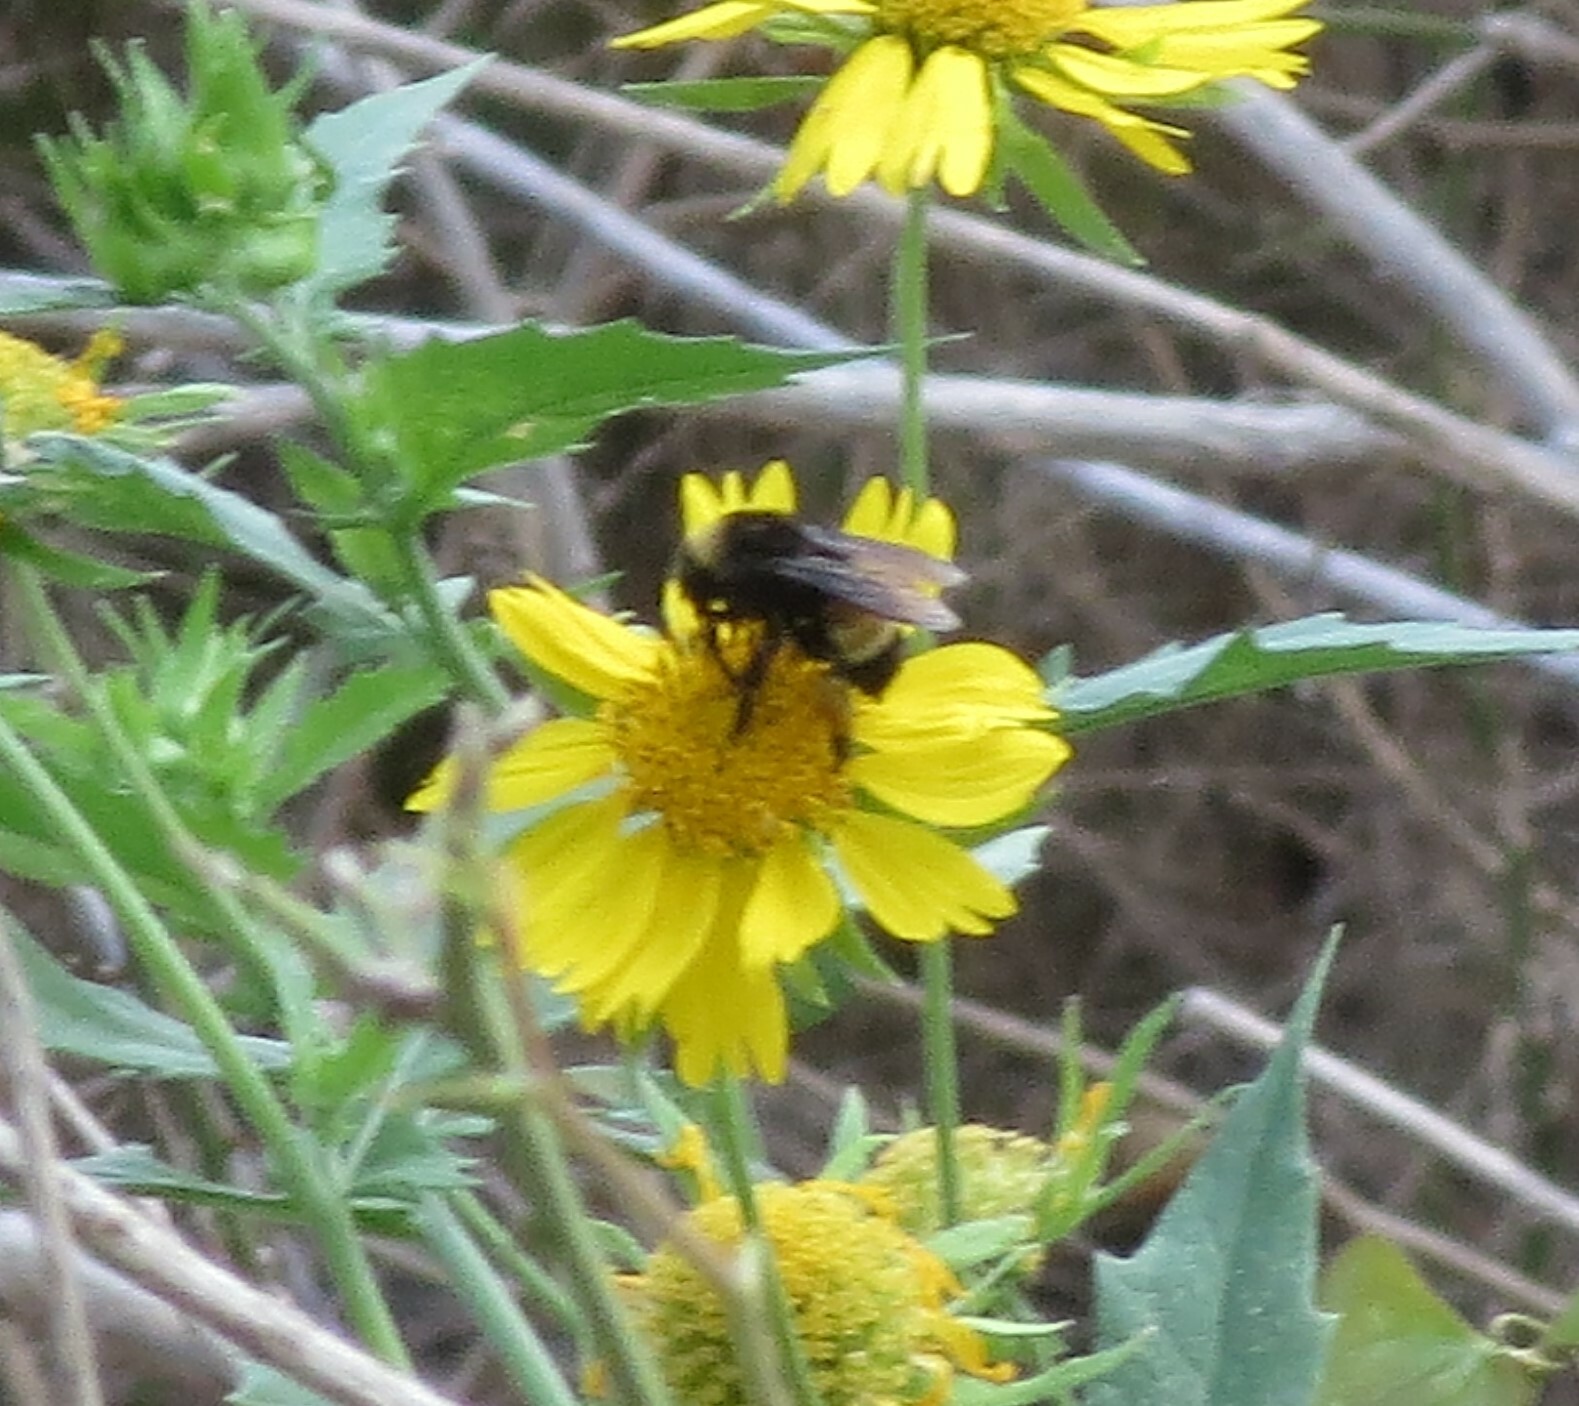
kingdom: Animalia
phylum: Arthropoda
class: Insecta
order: Hymenoptera
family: Apidae
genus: Bombus
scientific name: Bombus pensylvanicus
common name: Bumble bee
